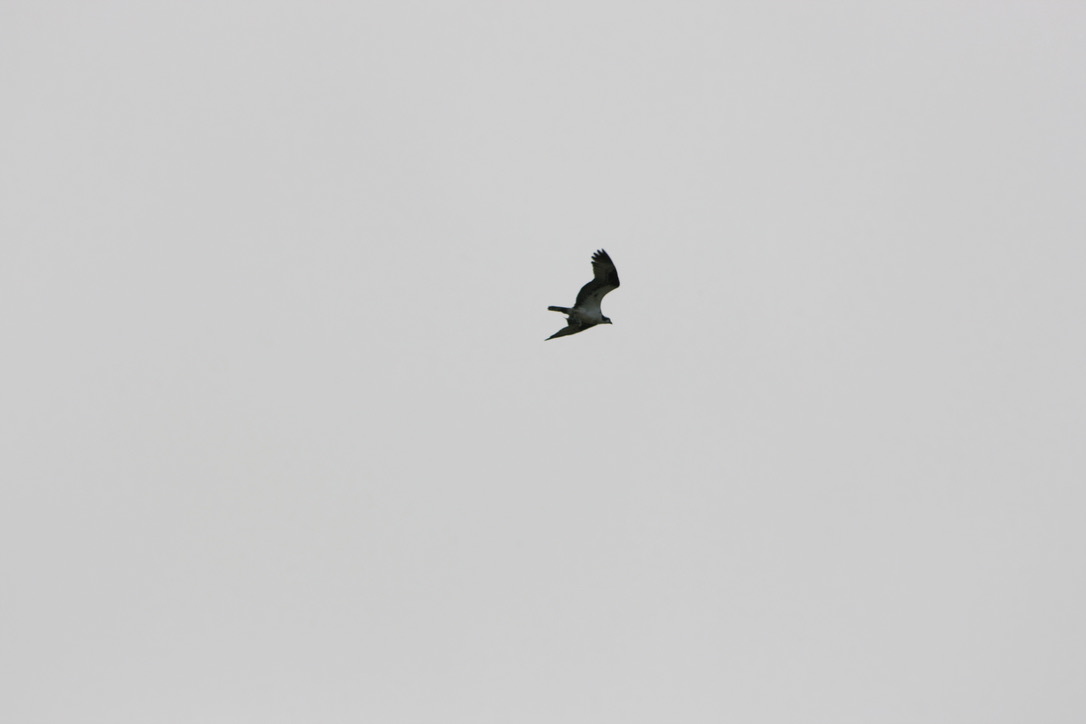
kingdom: Animalia
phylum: Chordata
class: Aves
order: Accipitriformes
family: Pandionidae
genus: Pandion
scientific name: Pandion haliaetus
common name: Osprey
